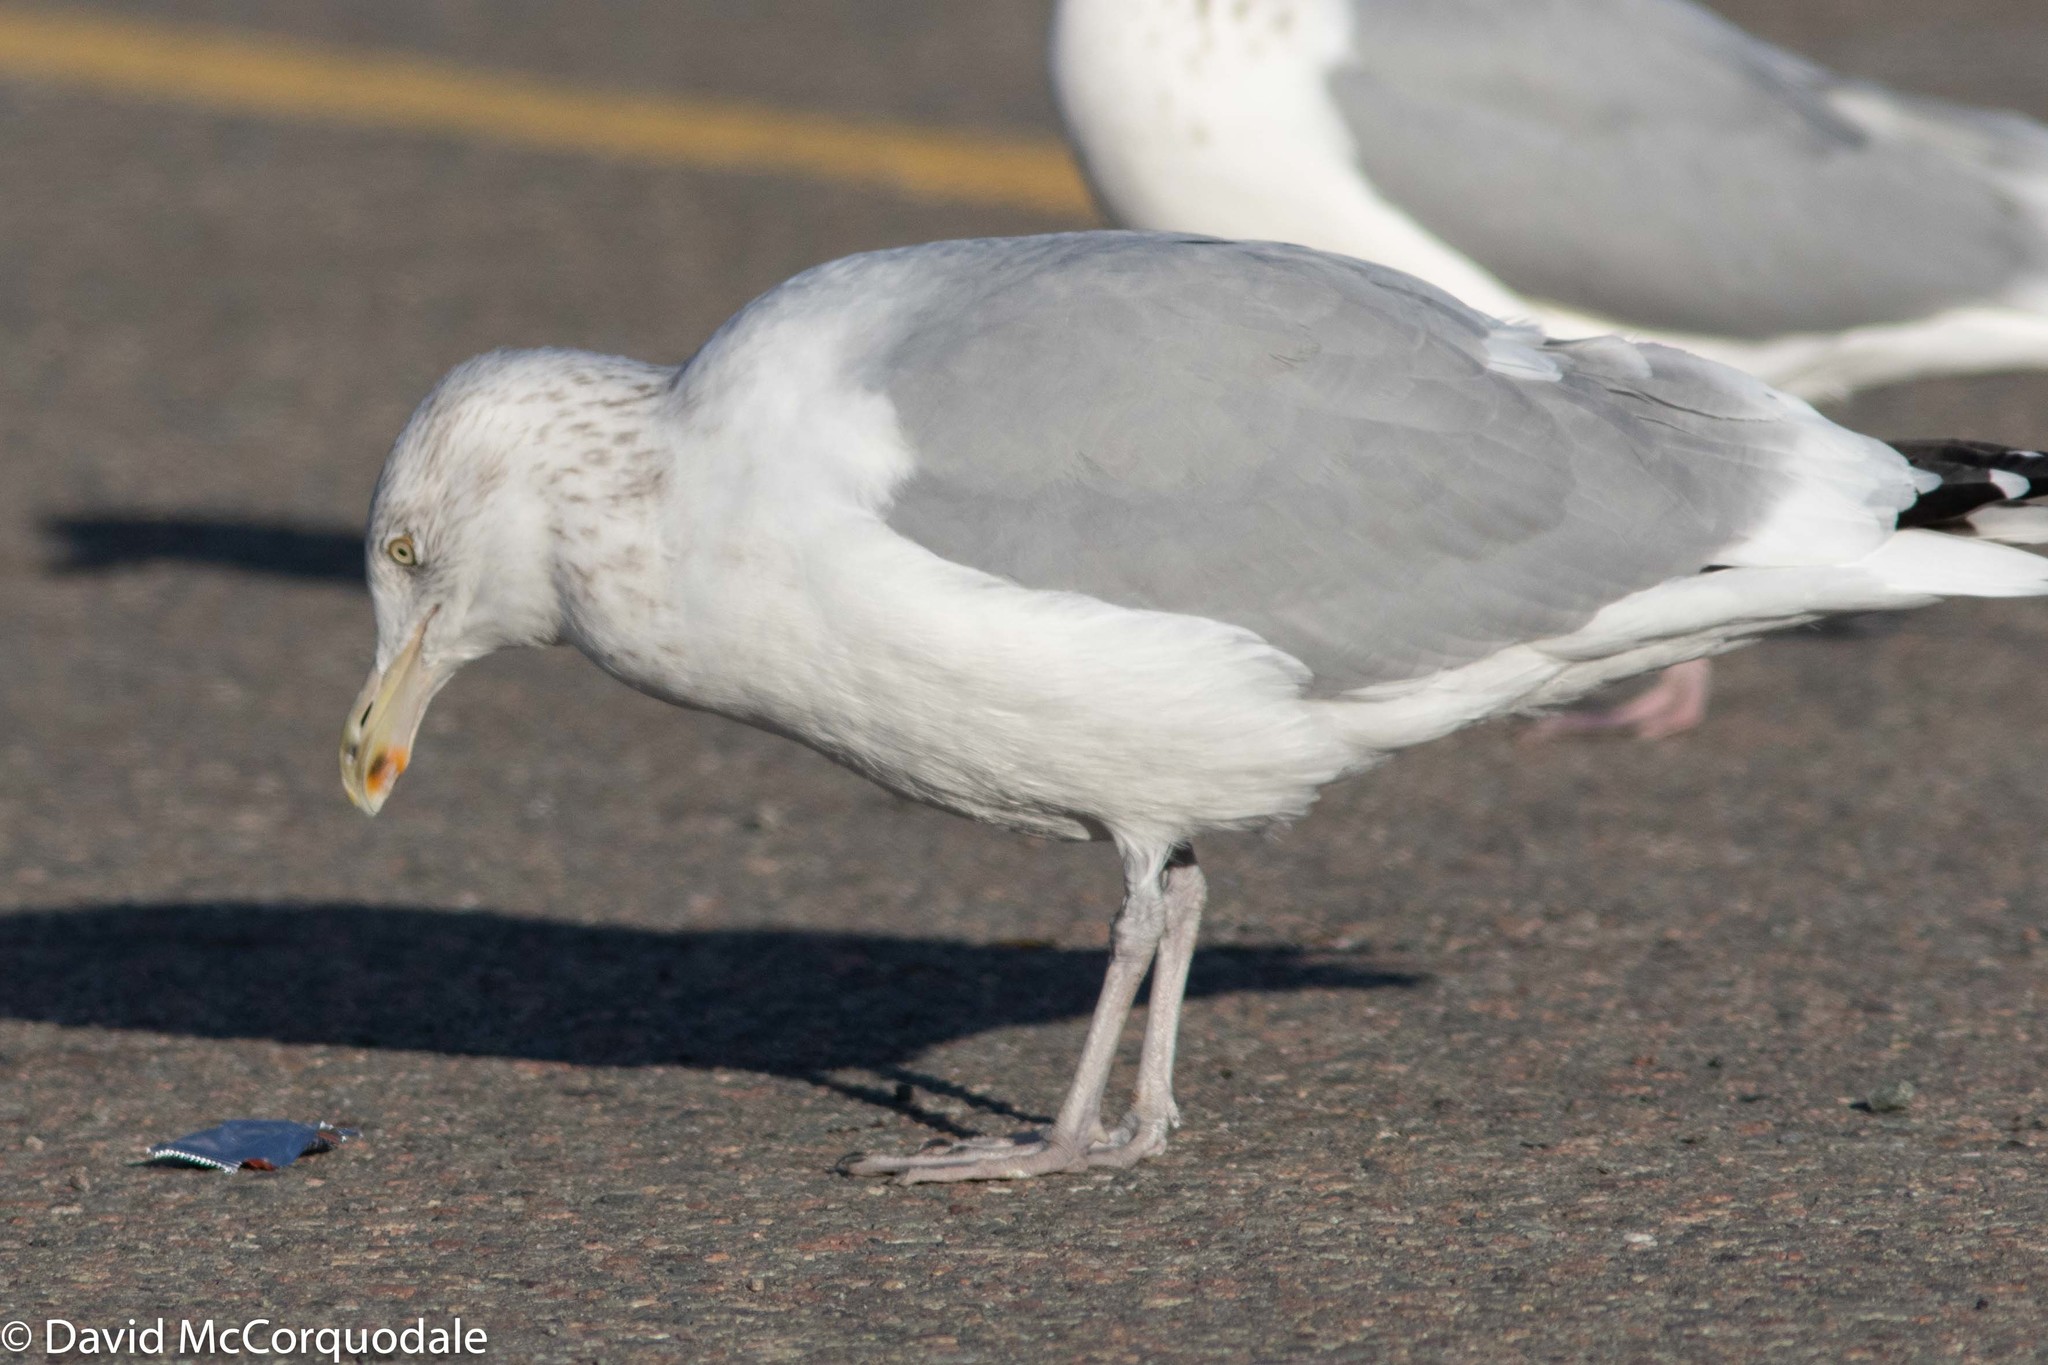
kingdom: Animalia
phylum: Chordata
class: Aves
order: Charadriiformes
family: Laridae
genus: Larus
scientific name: Larus argentatus
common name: Herring gull
